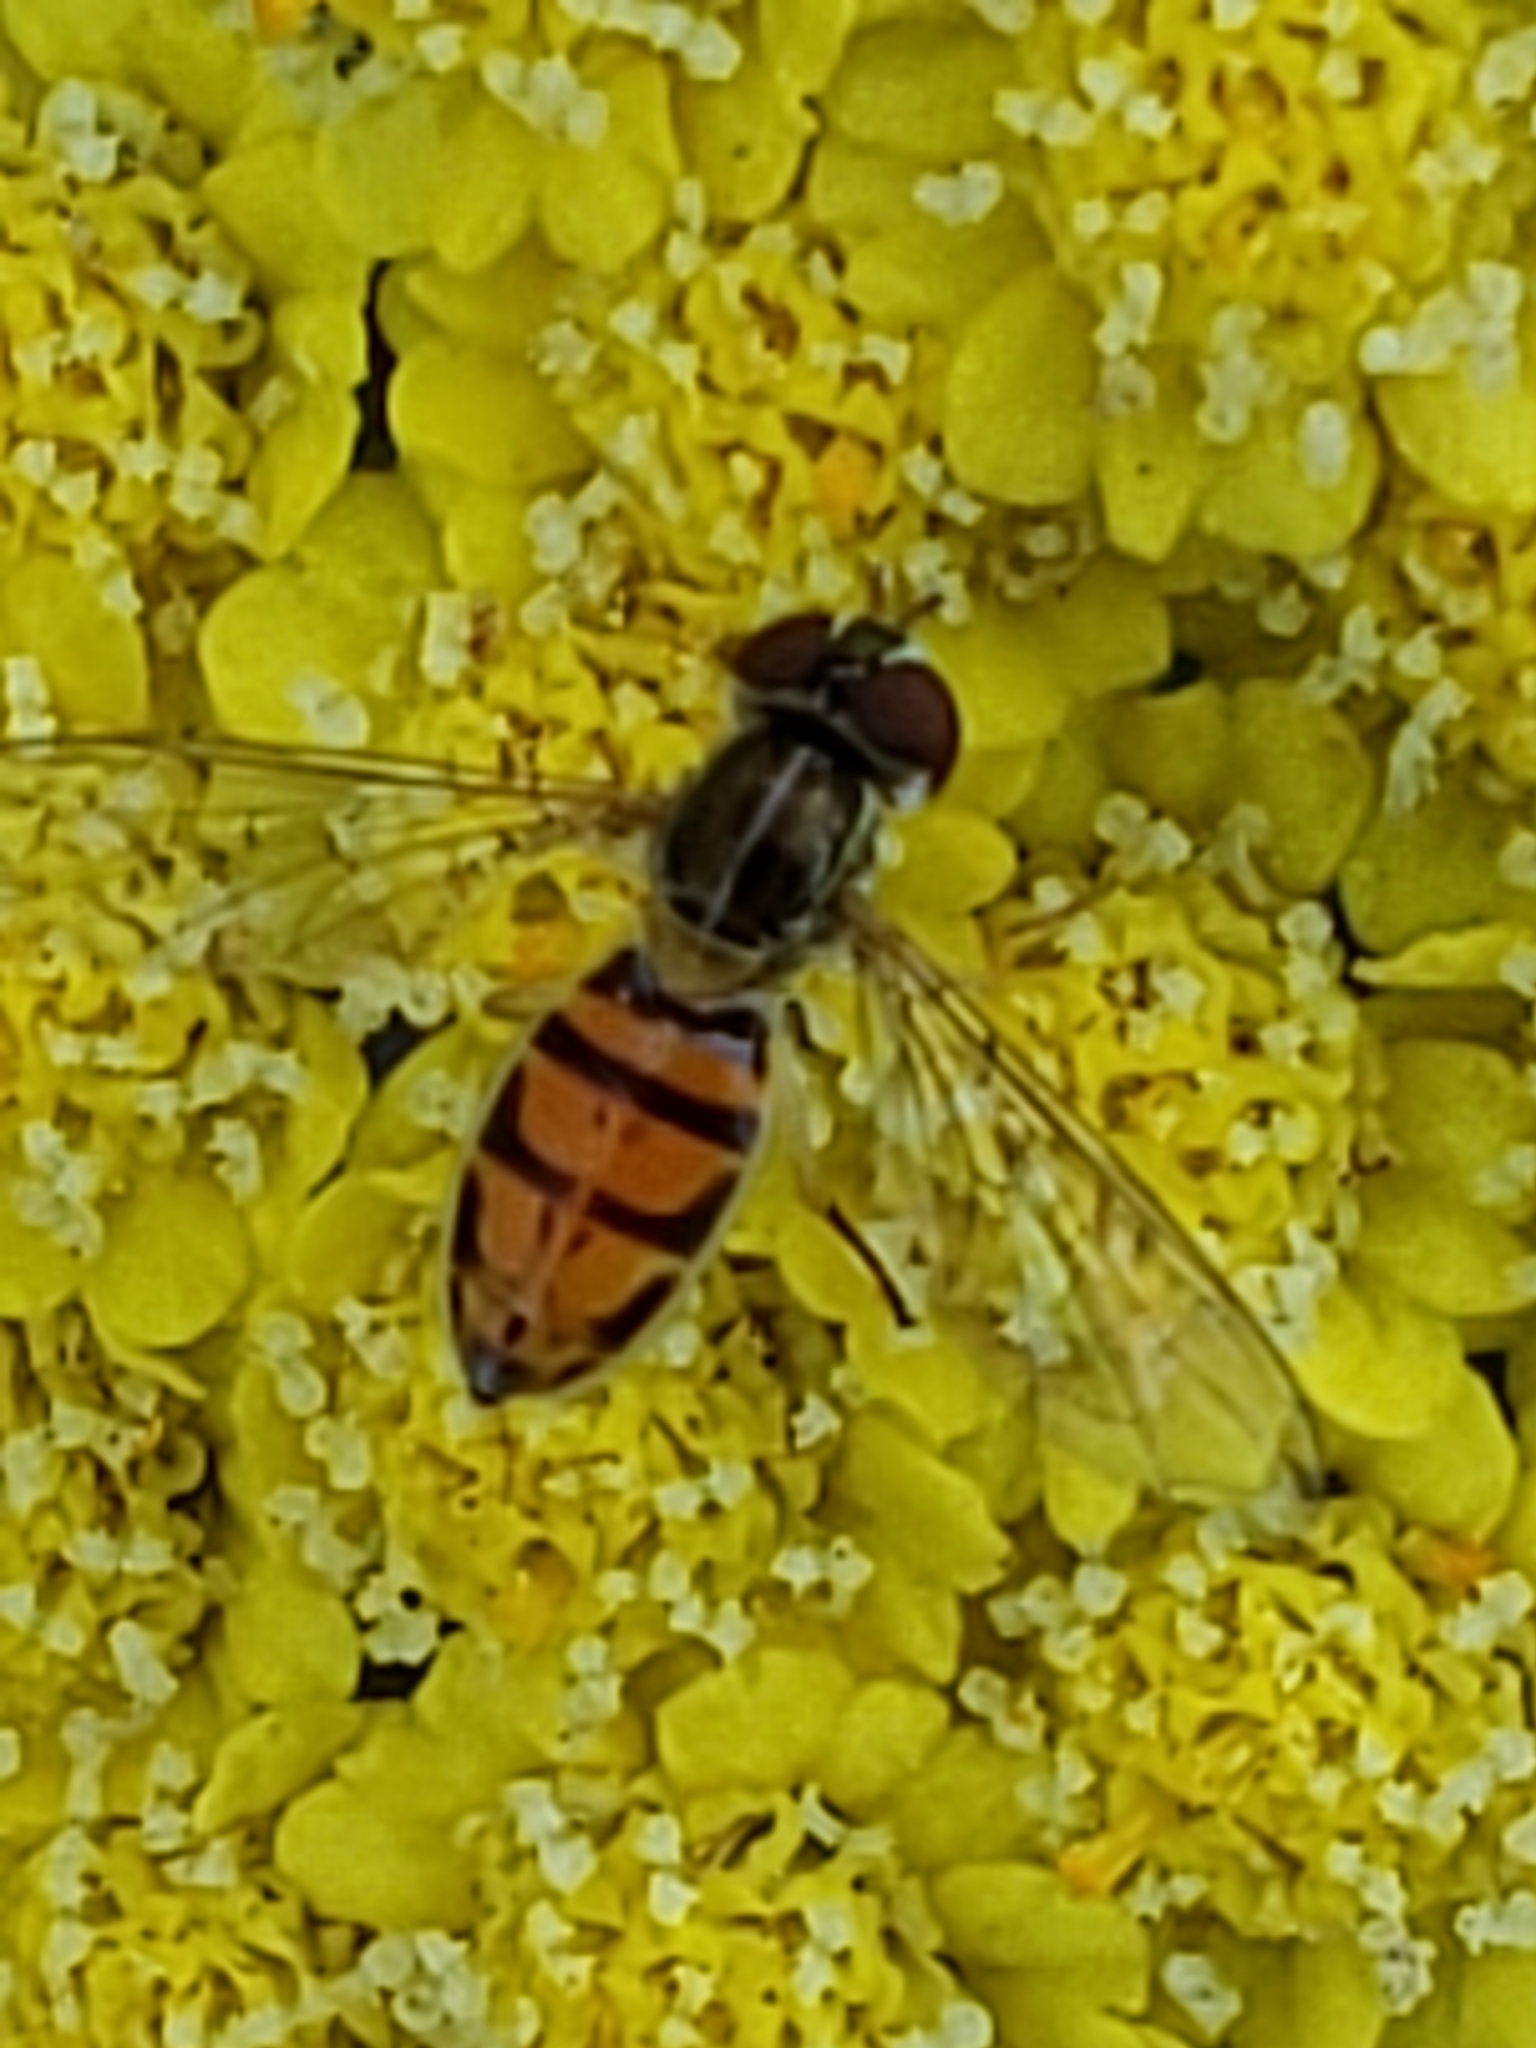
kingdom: Animalia
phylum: Arthropoda
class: Insecta
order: Diptera
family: Syrphidae
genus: Toxomerus
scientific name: Toxomerus marginatus
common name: Syrphid fly
